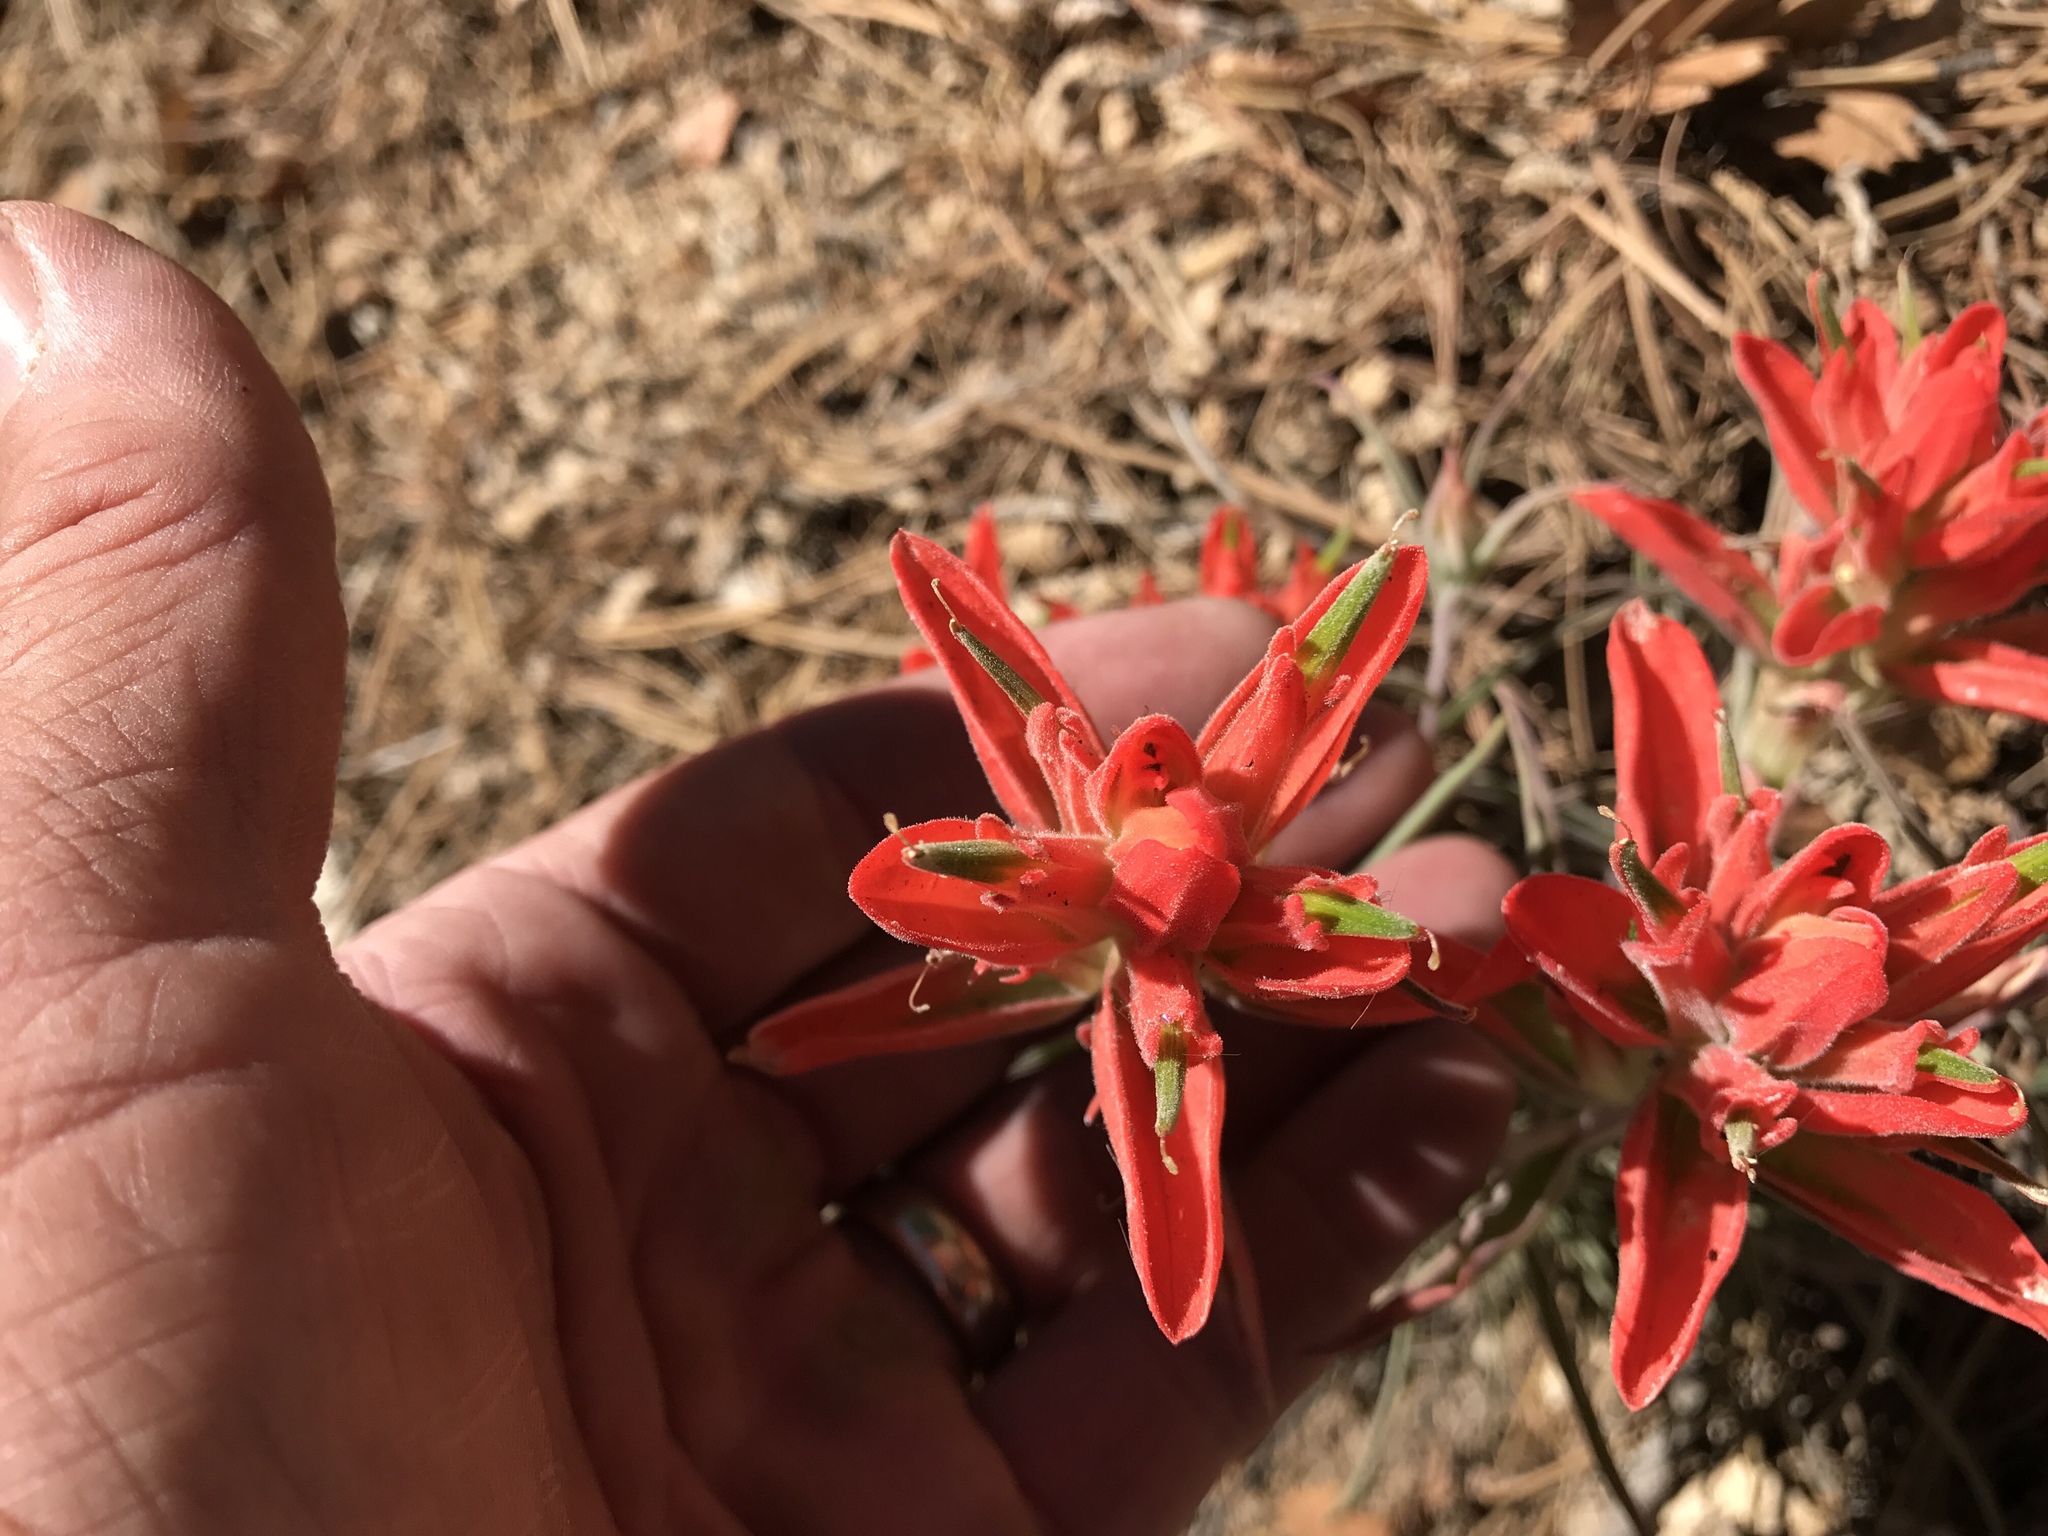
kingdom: Plantae
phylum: Tracheophyta
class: Magnoliopsida
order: Lamiales
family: Orobanchaceae
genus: Castilleja
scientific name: Castilleja integra
